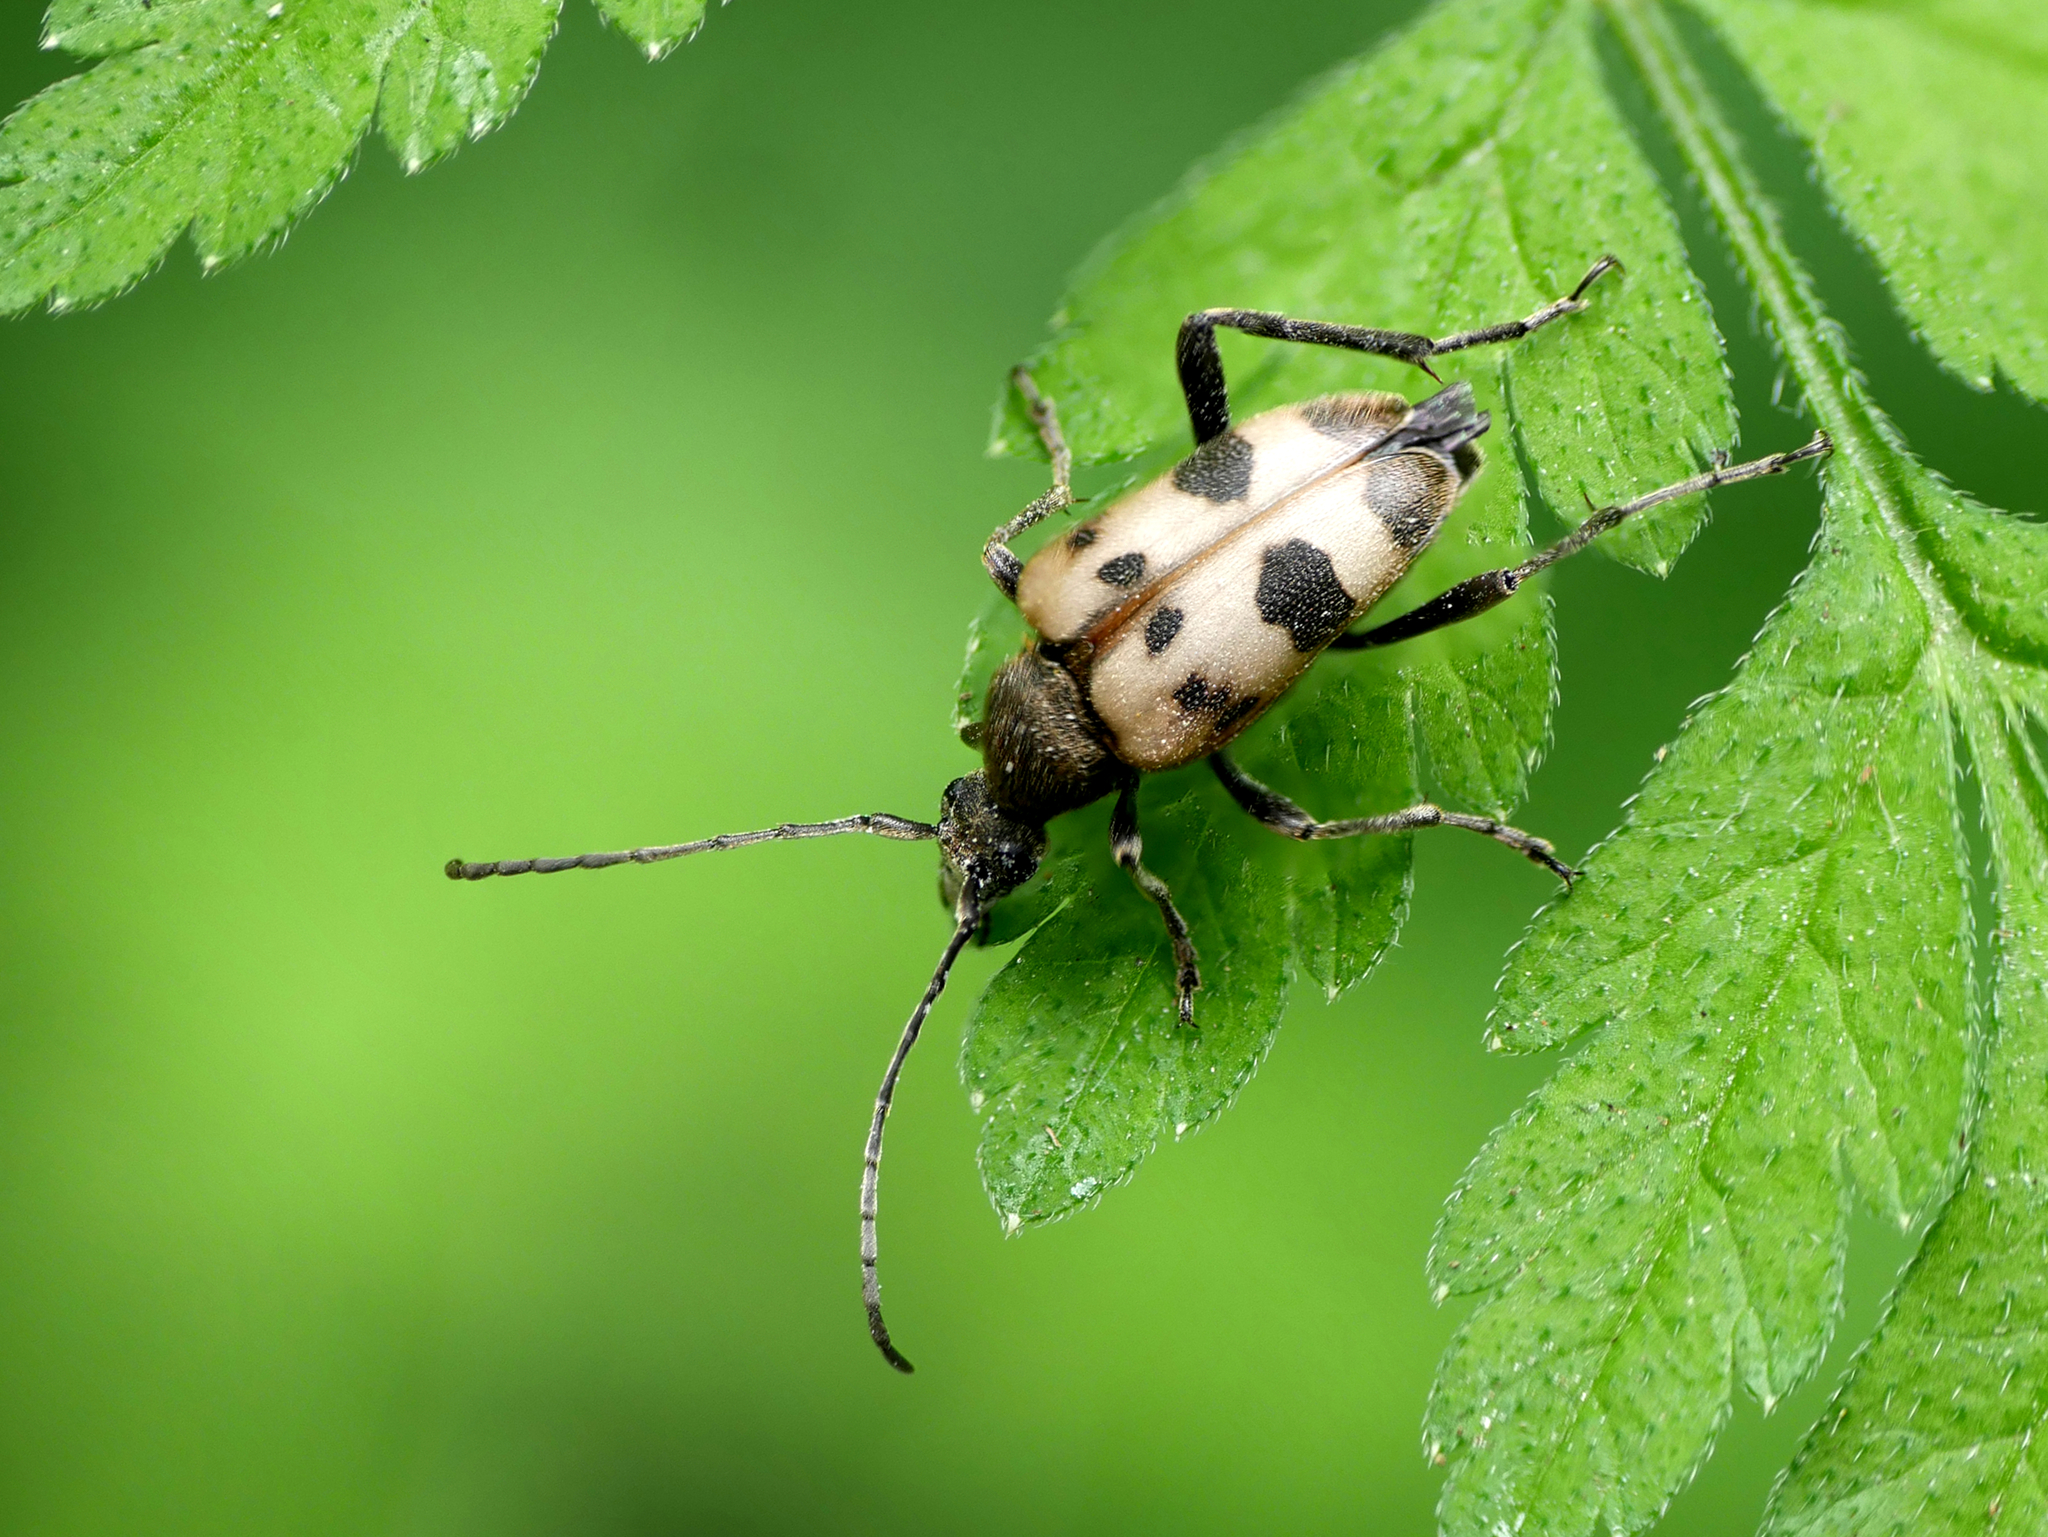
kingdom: Animalia
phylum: Arthropoda
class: Insecta
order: Coleoptera
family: Cerambycidae
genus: Pachytodes
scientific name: Pachytodes cerambyciformis
